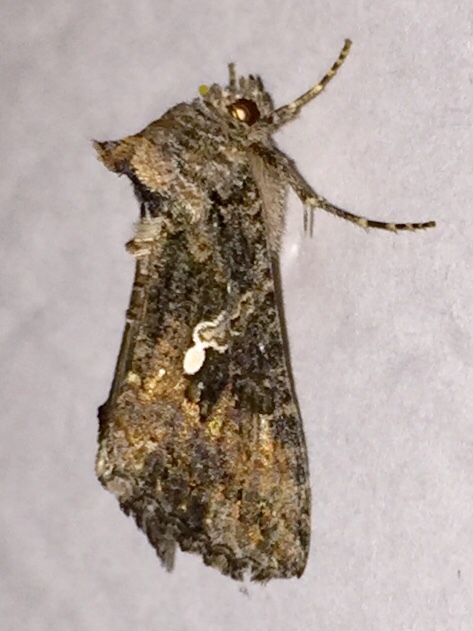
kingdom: Animalia
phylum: Arthropoda
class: Insecta
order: Lepidoptera
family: Noctuidae
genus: Trichoplusia
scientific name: Trichoplusia ni
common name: Ni moth
